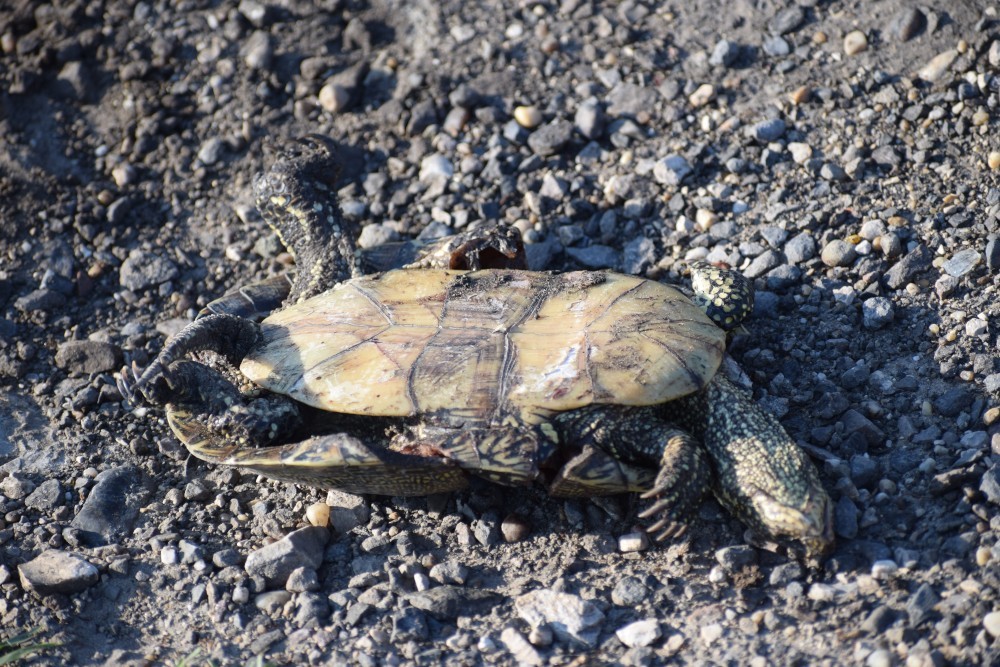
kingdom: Animalia
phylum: Chordata
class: Testudines
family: Emydidae
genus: Emys
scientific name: Emys orbicularis
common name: European pond turtle
